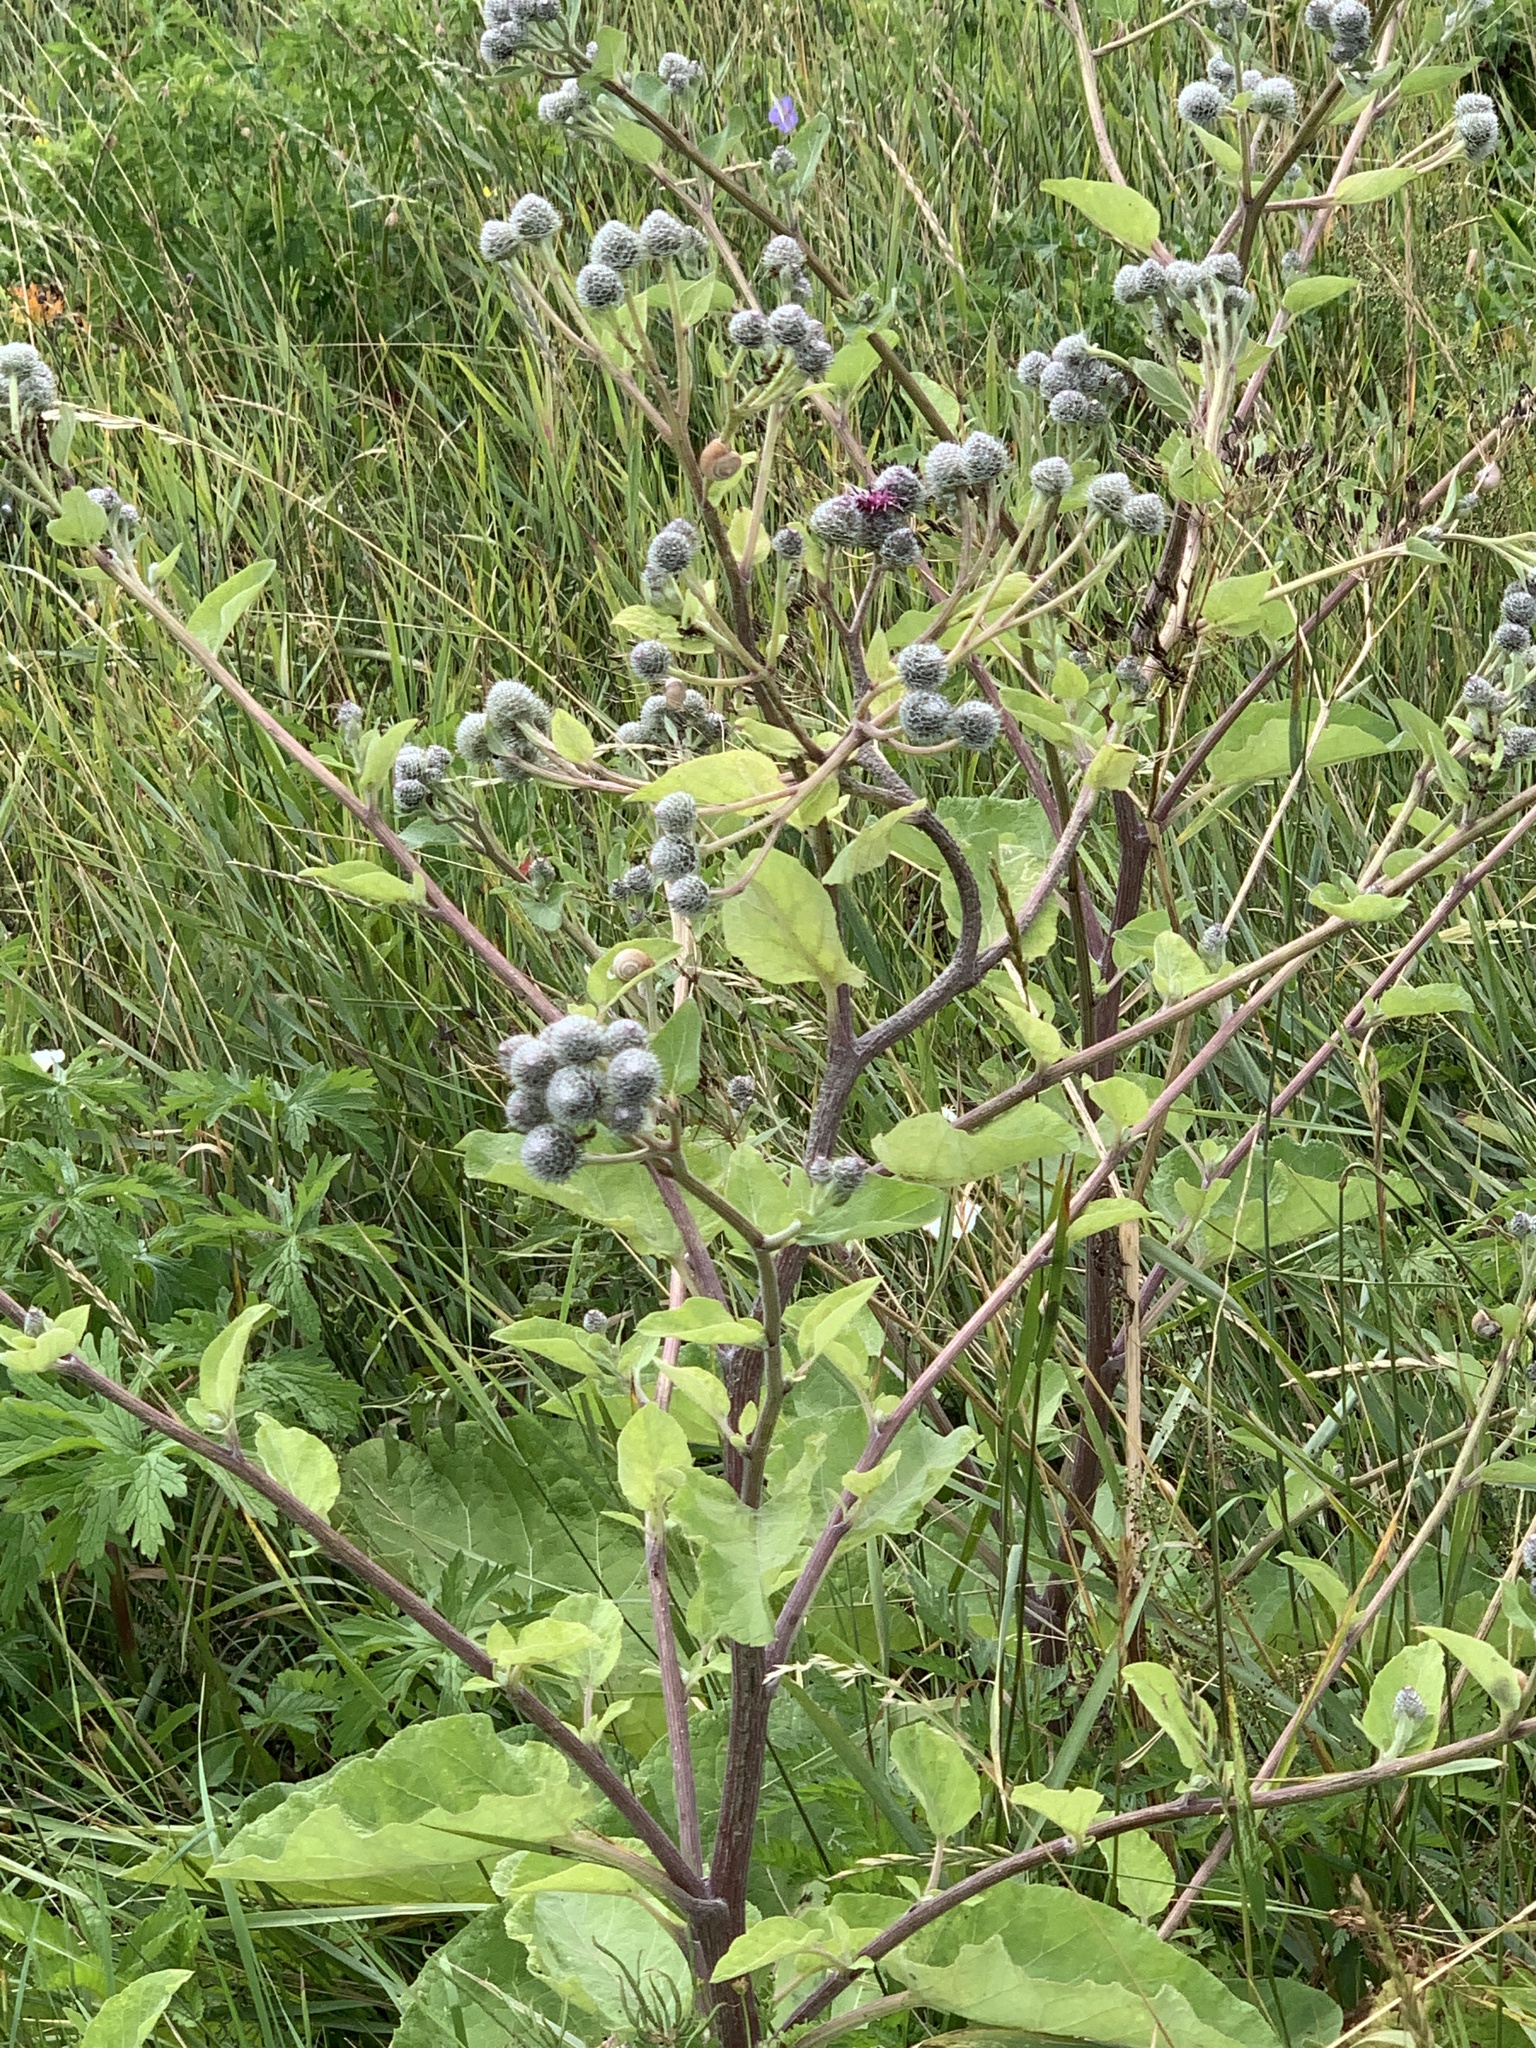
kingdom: Plantae
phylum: Tracheophyta
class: Magnoliopsida
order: Asterales
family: Asteraceae
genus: Arctium
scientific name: Arctium tomentosum
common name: Woolly burdock
